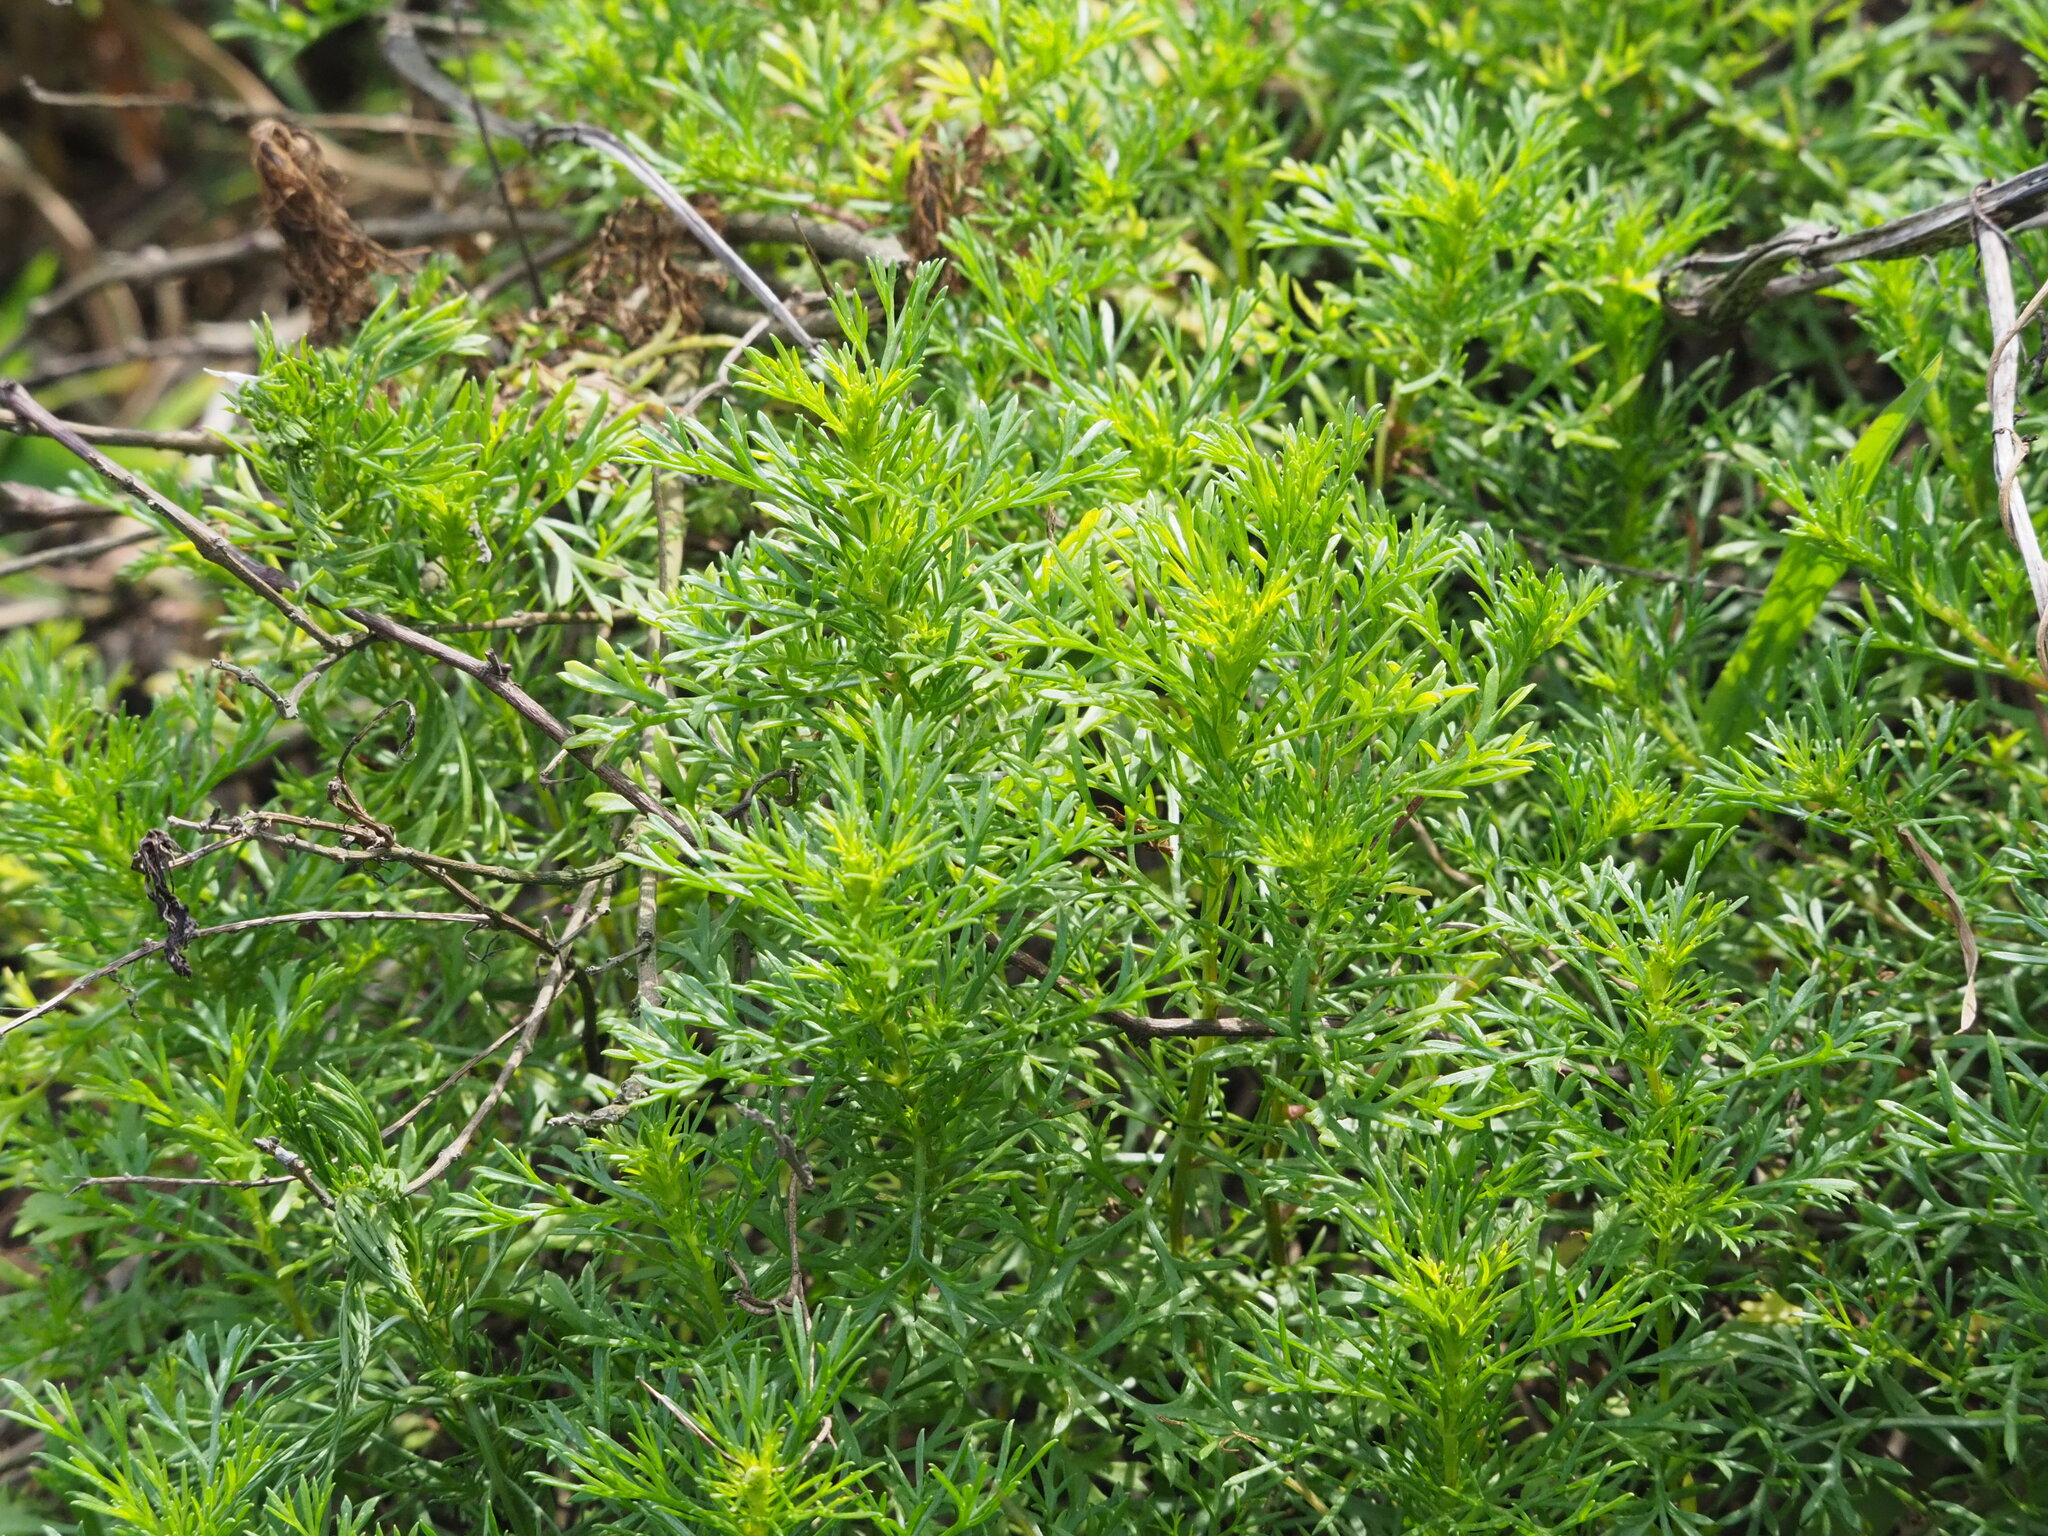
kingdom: Plantae
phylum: Tracheophyta
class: Magnoliopsida
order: Asterales
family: Asteraceae
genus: Artemisia
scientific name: Artemisia capillaris
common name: Yin-chen wormwood
